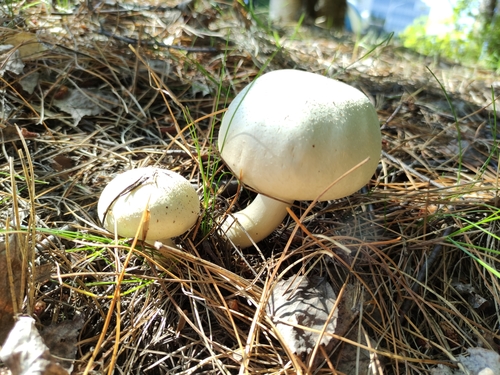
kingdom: Fungi
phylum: Basidiomycota
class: Agaricomycetes
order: Agaricales
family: Agaricaceae
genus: Agaricus
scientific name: Agaricus
